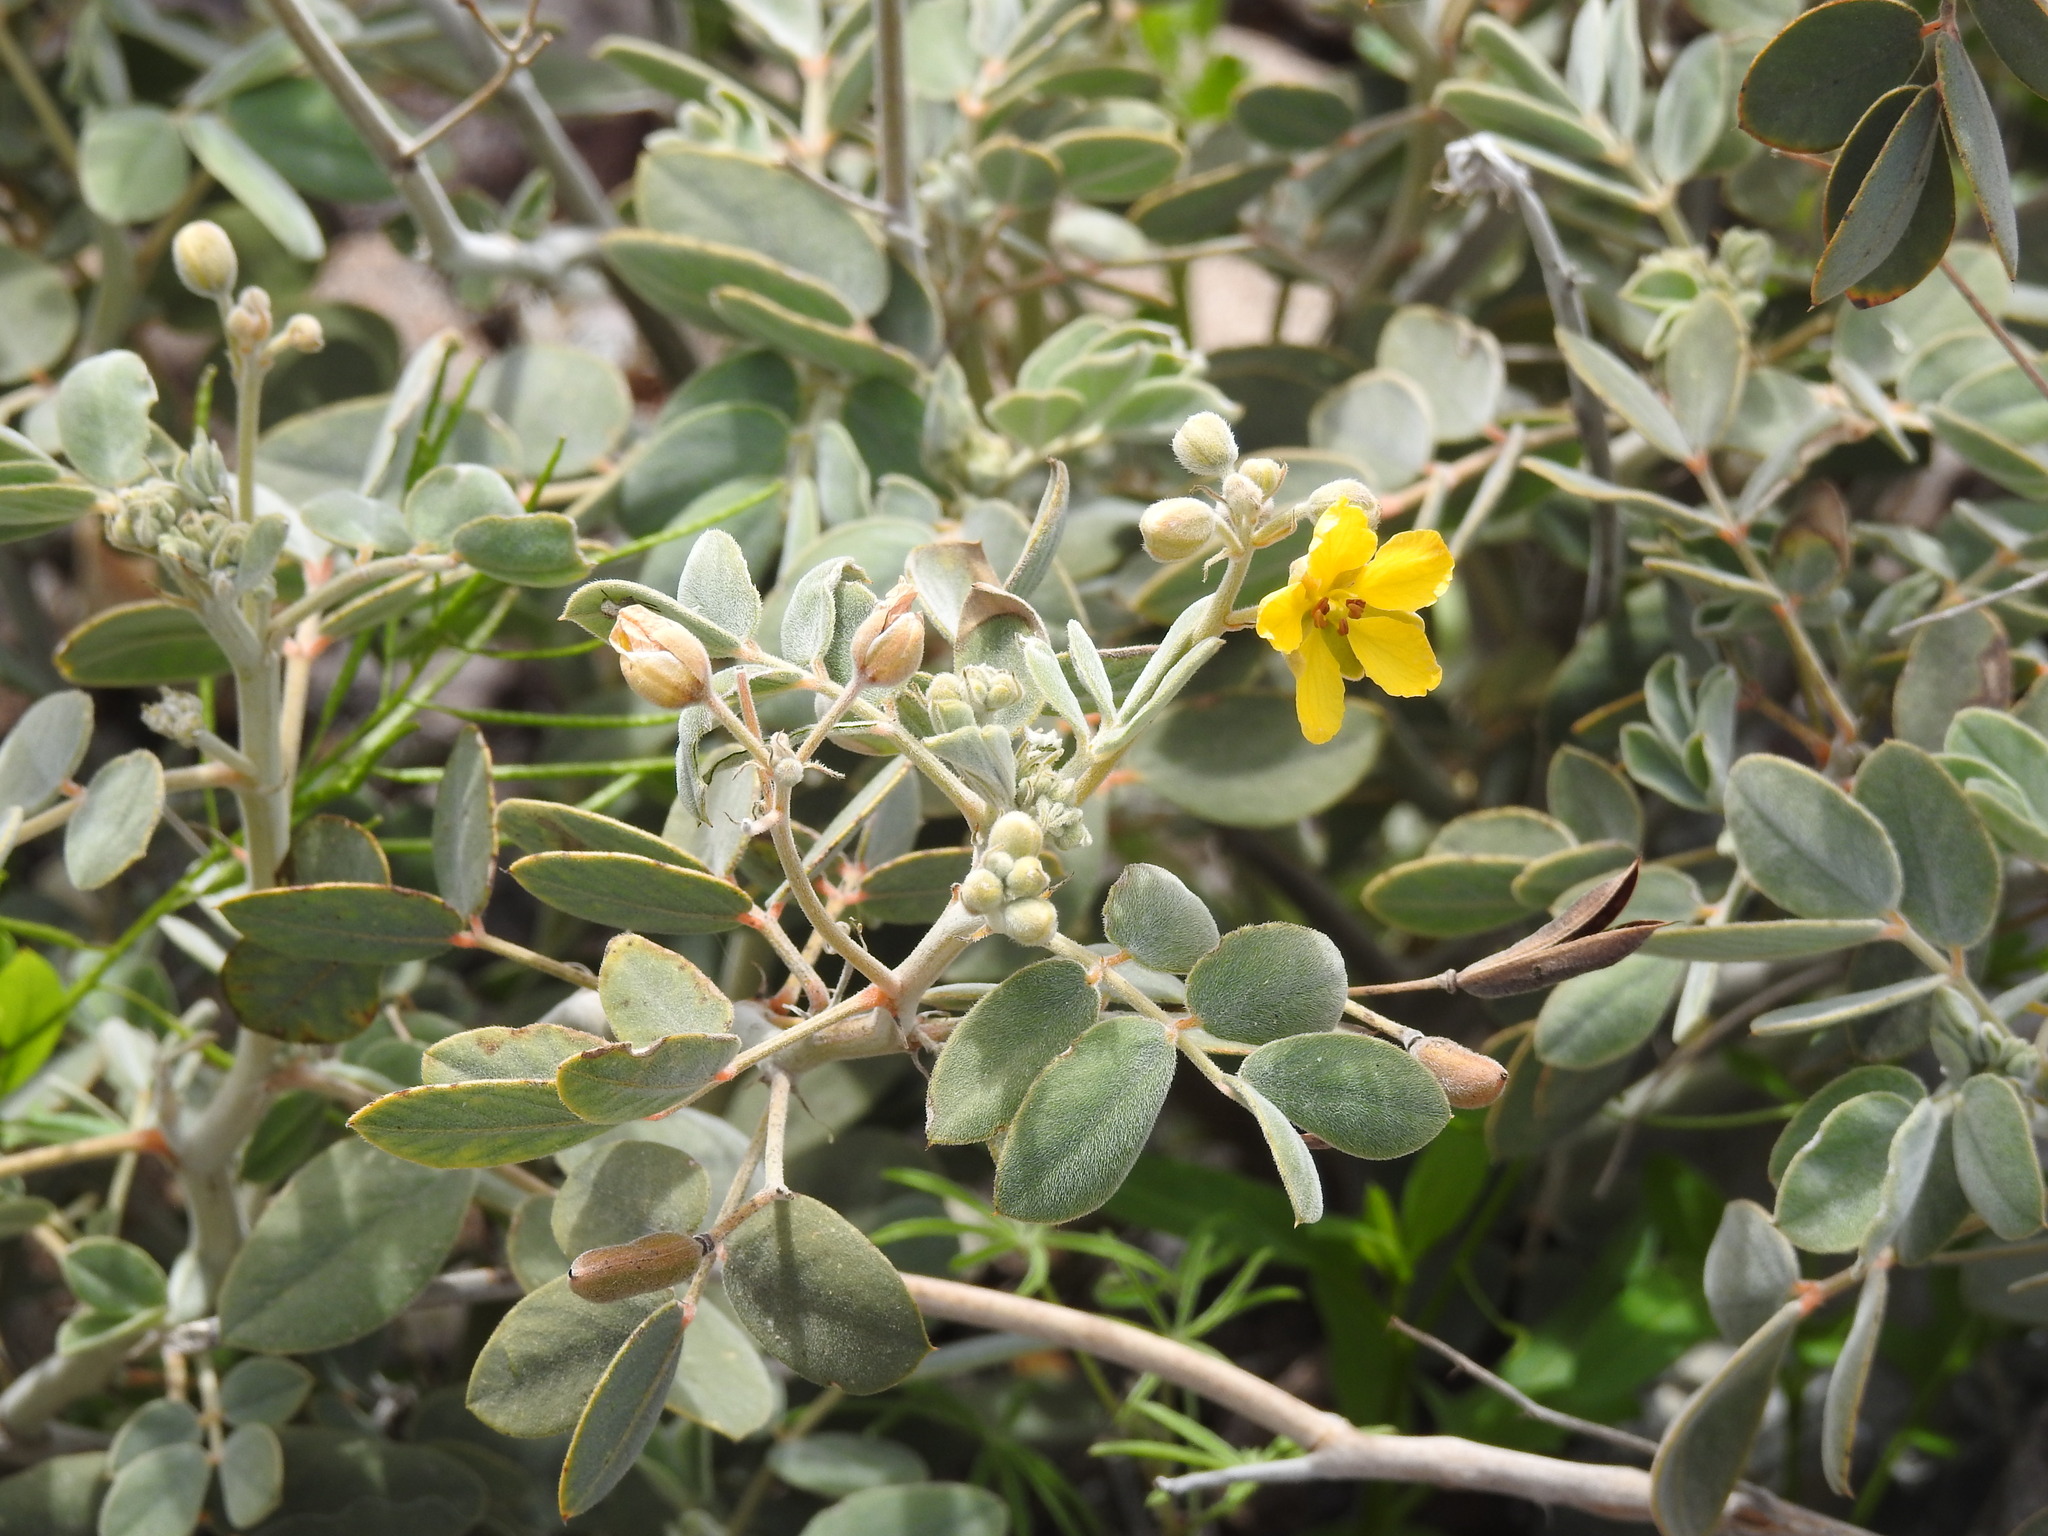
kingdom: Plantae
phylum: Tracheophyta
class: Magnoliopsida
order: Fabales
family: Fabaceae
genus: Senna
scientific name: Senna covesii
